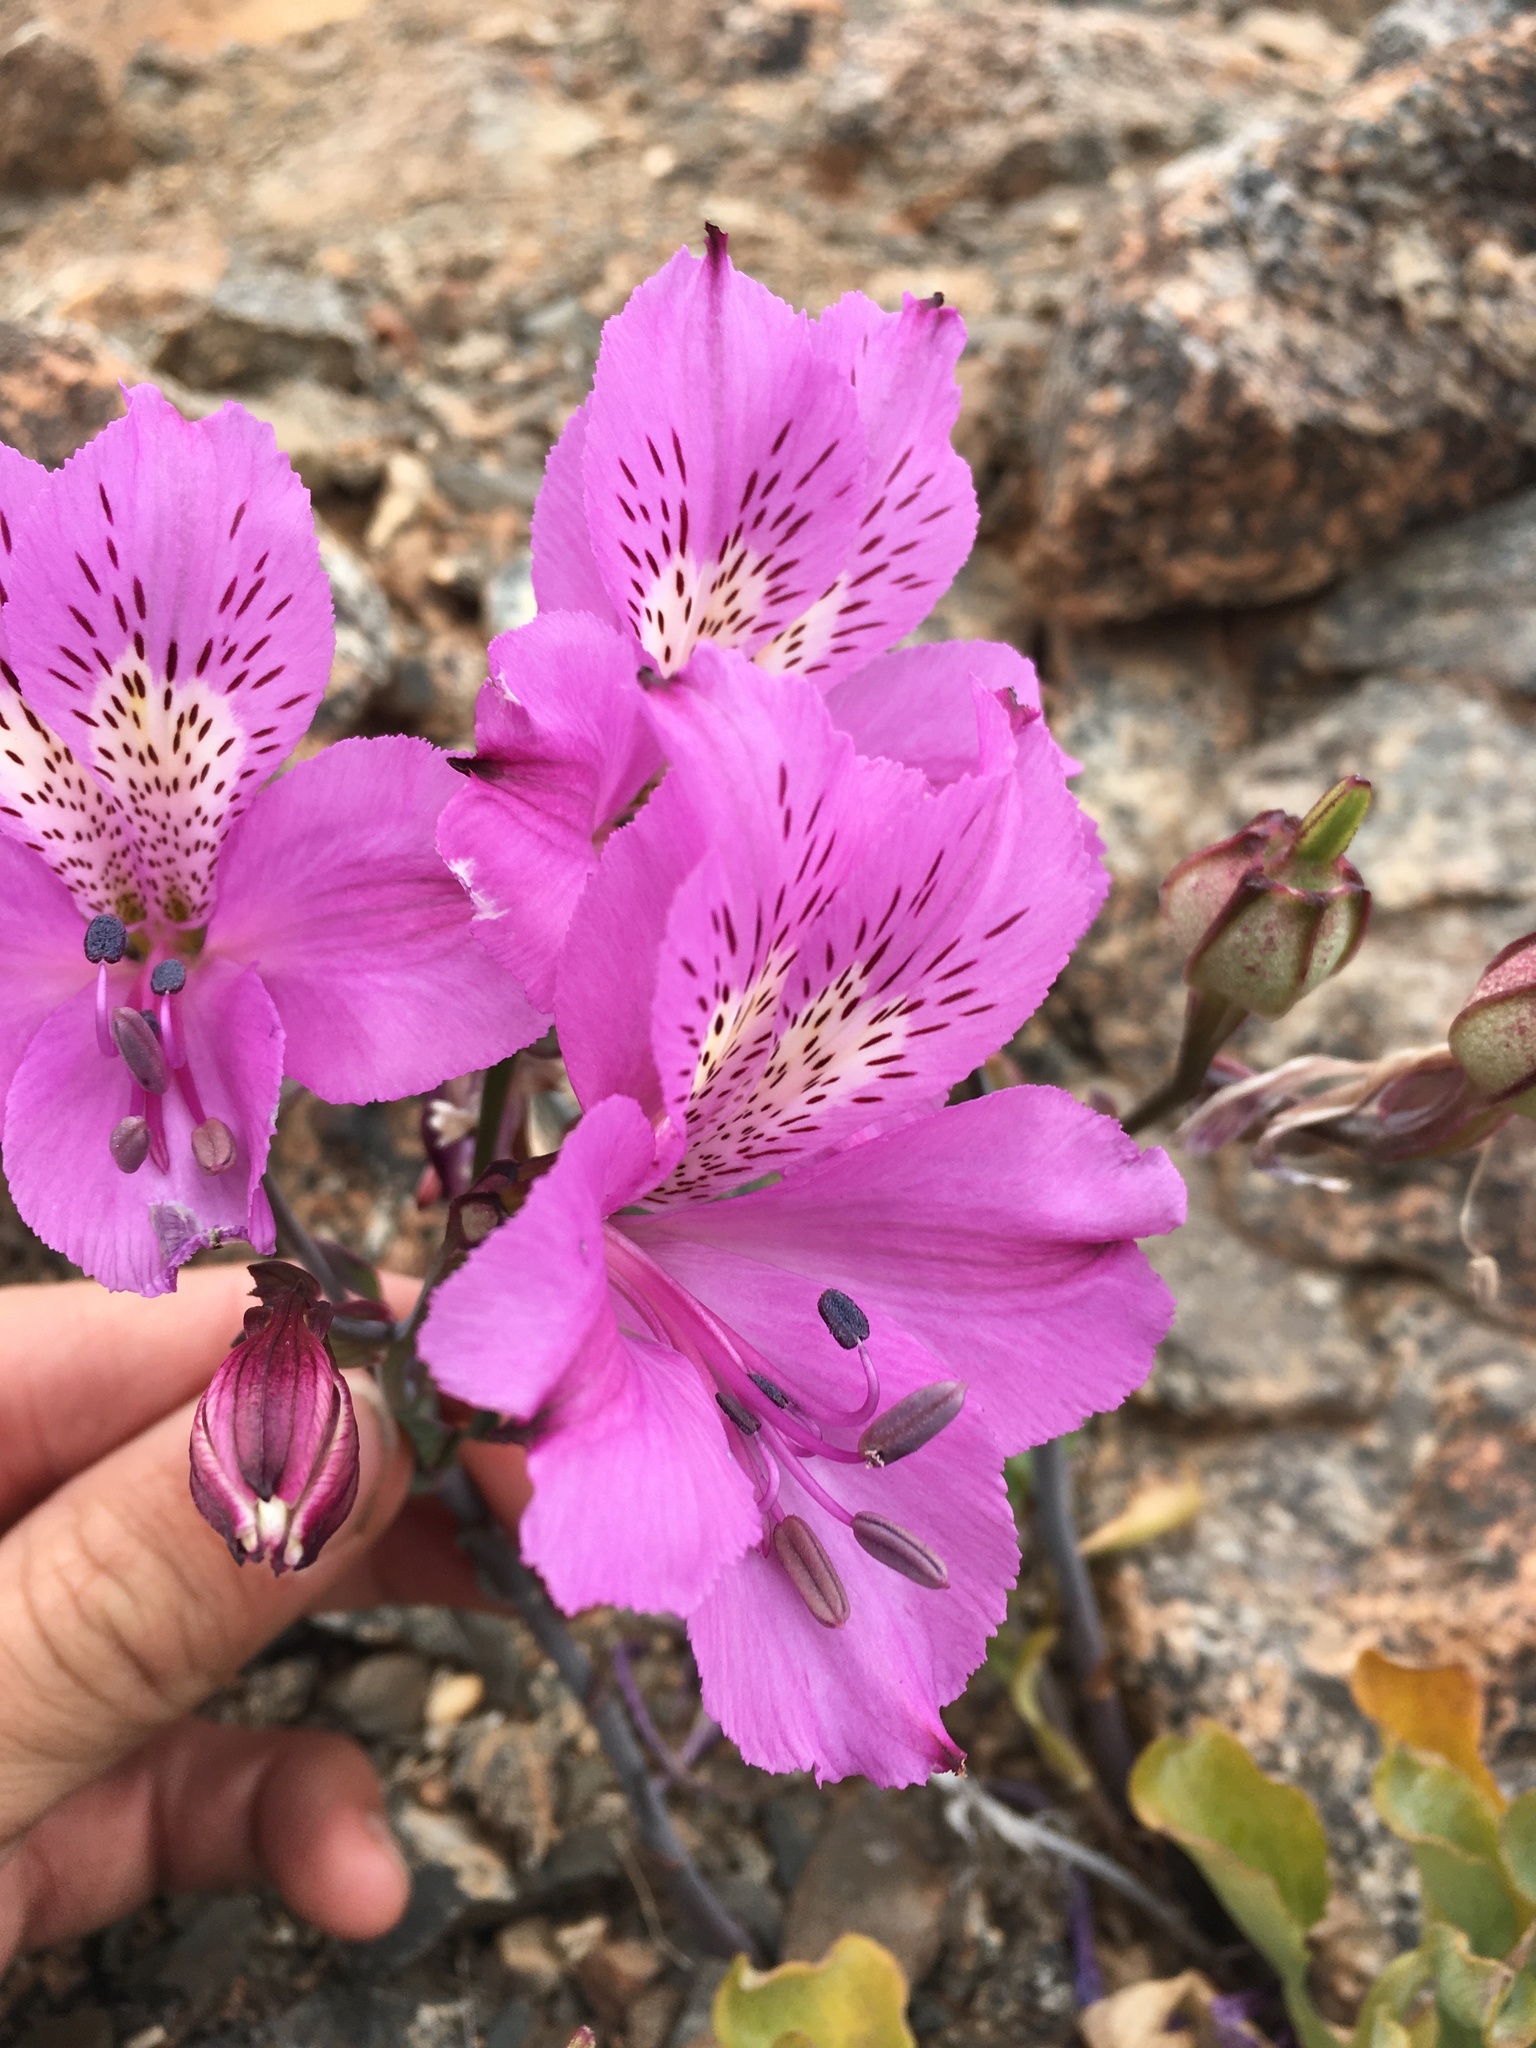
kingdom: Plantae
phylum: Tracheophyta
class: Liliopsida
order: Liliales
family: Alstroemeriaceae
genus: Alstroemeria
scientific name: Alstroemeria violacea
